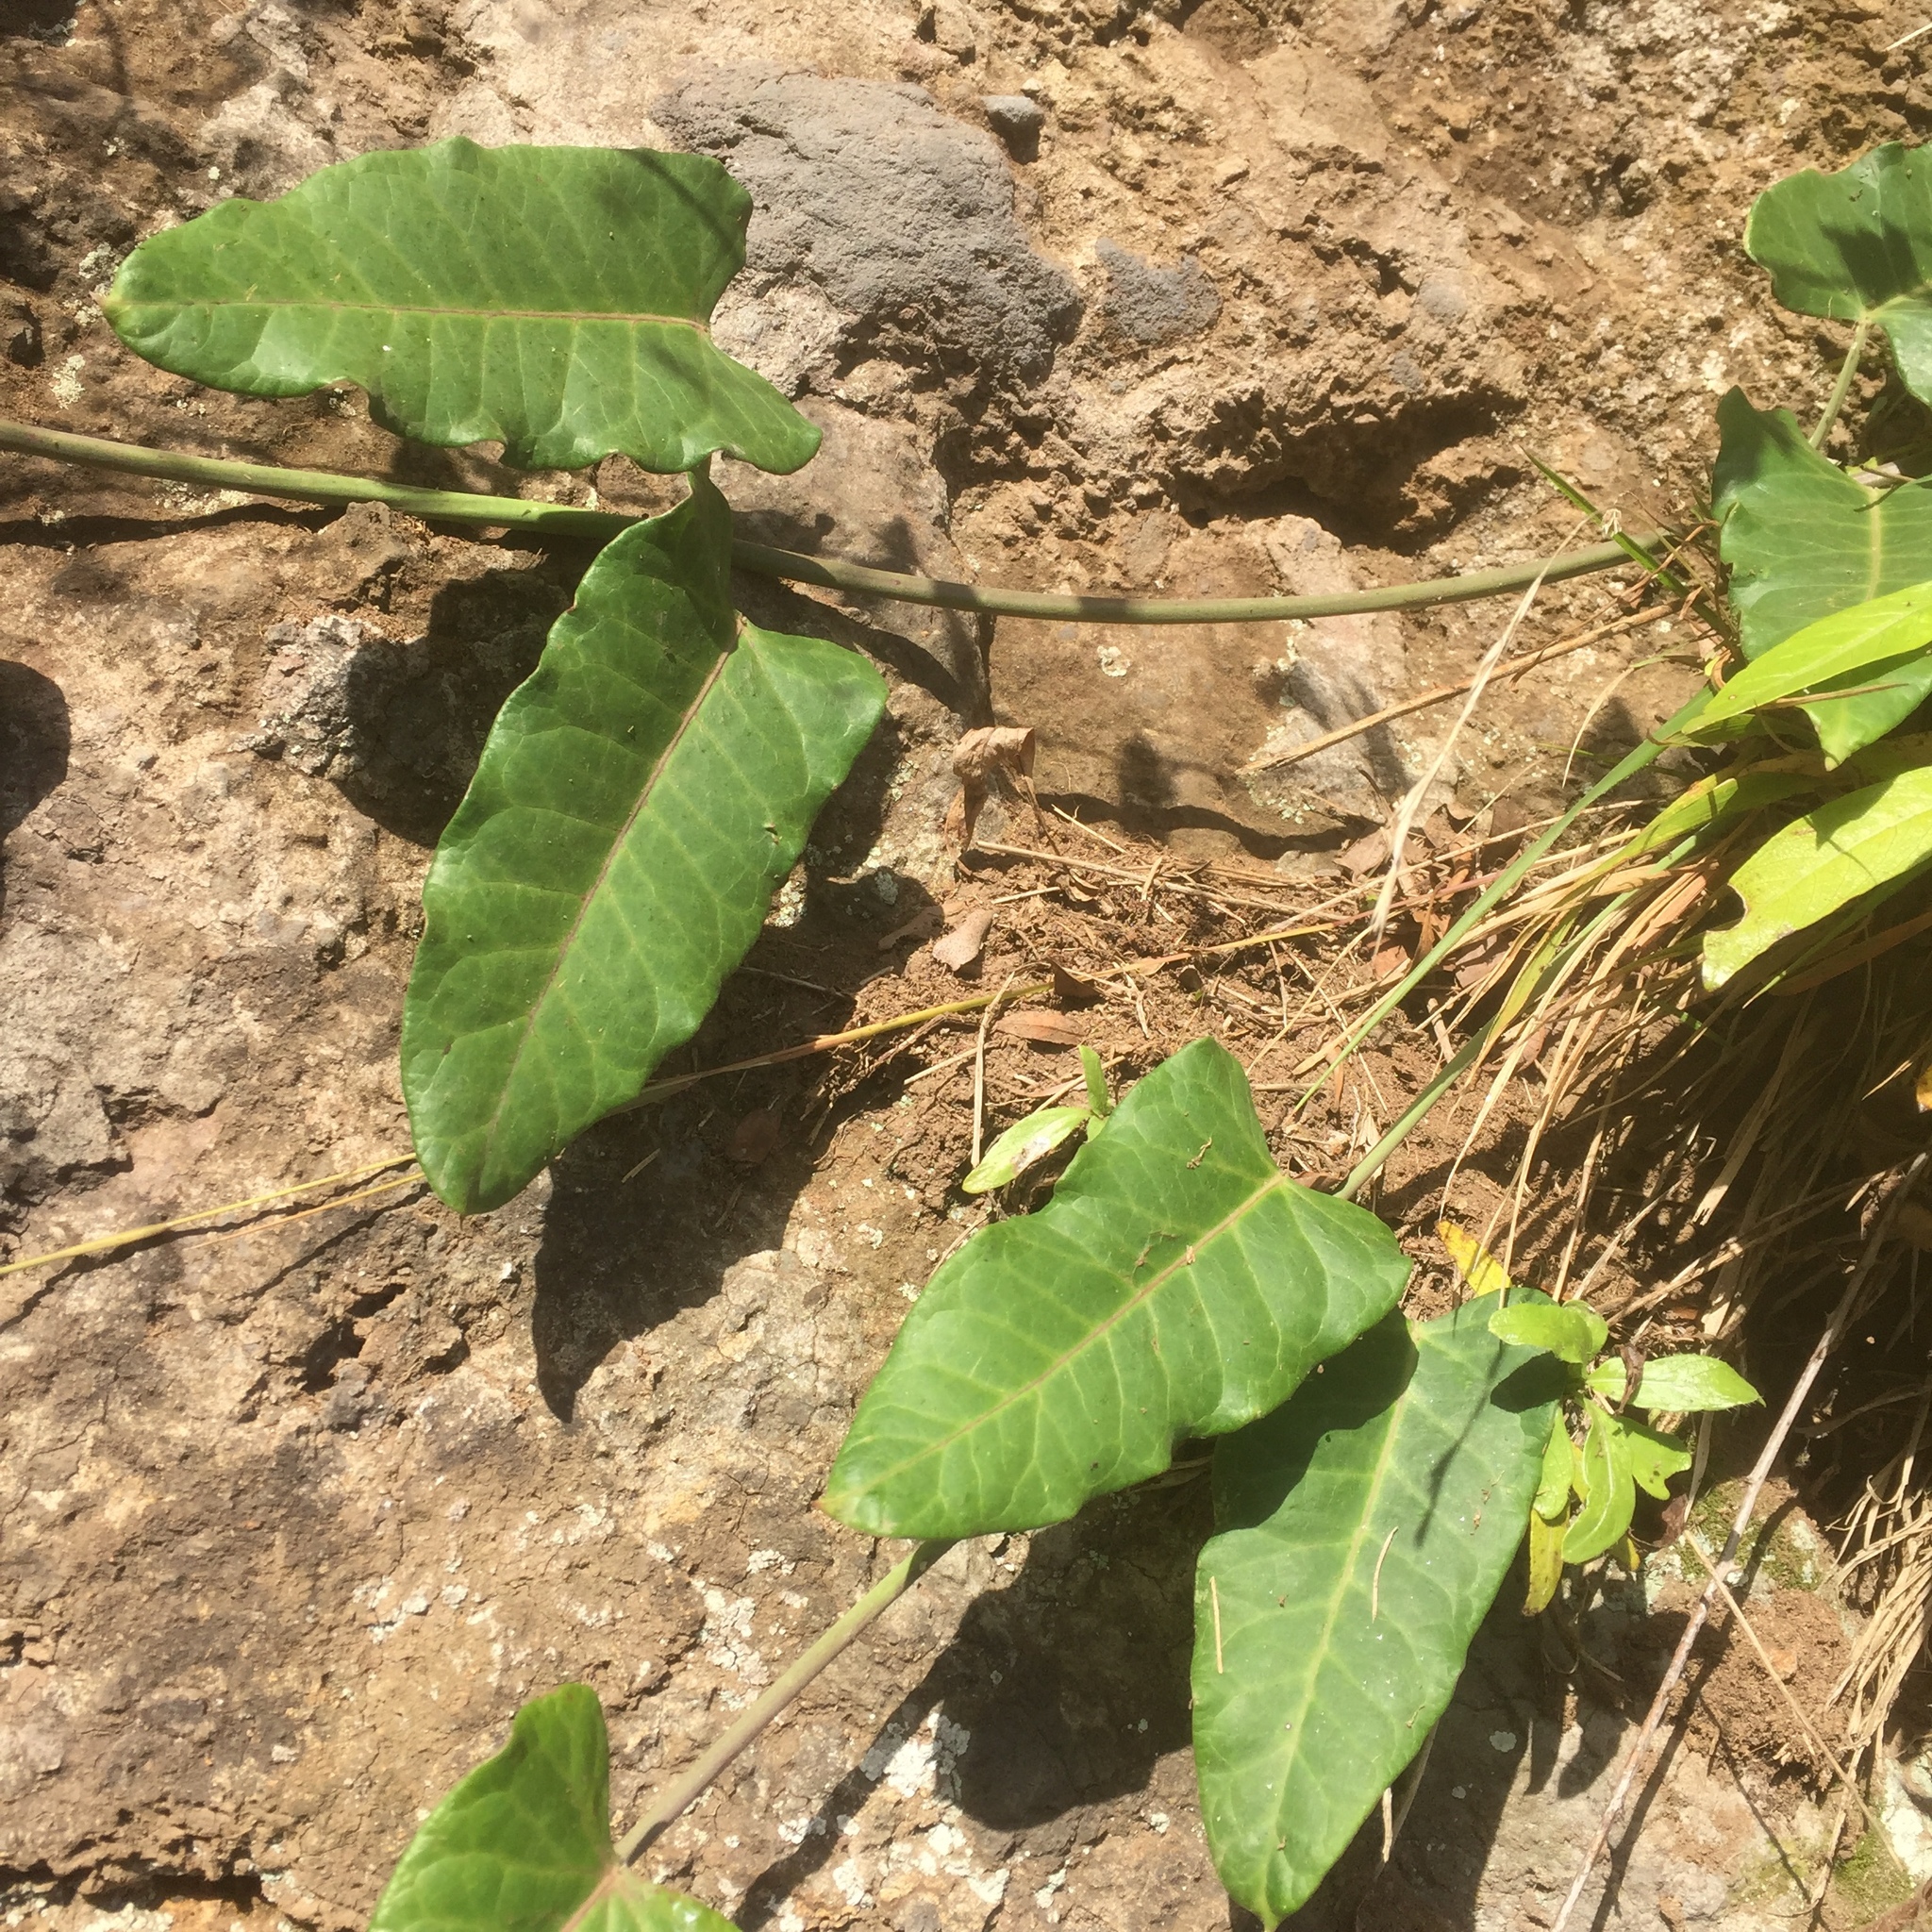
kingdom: Plantae
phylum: Tracheophyta
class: Magnoliopsida
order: Gentianales
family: Apocynaceae
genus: Araujia
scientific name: Araujia sericifera
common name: White bladderflower
